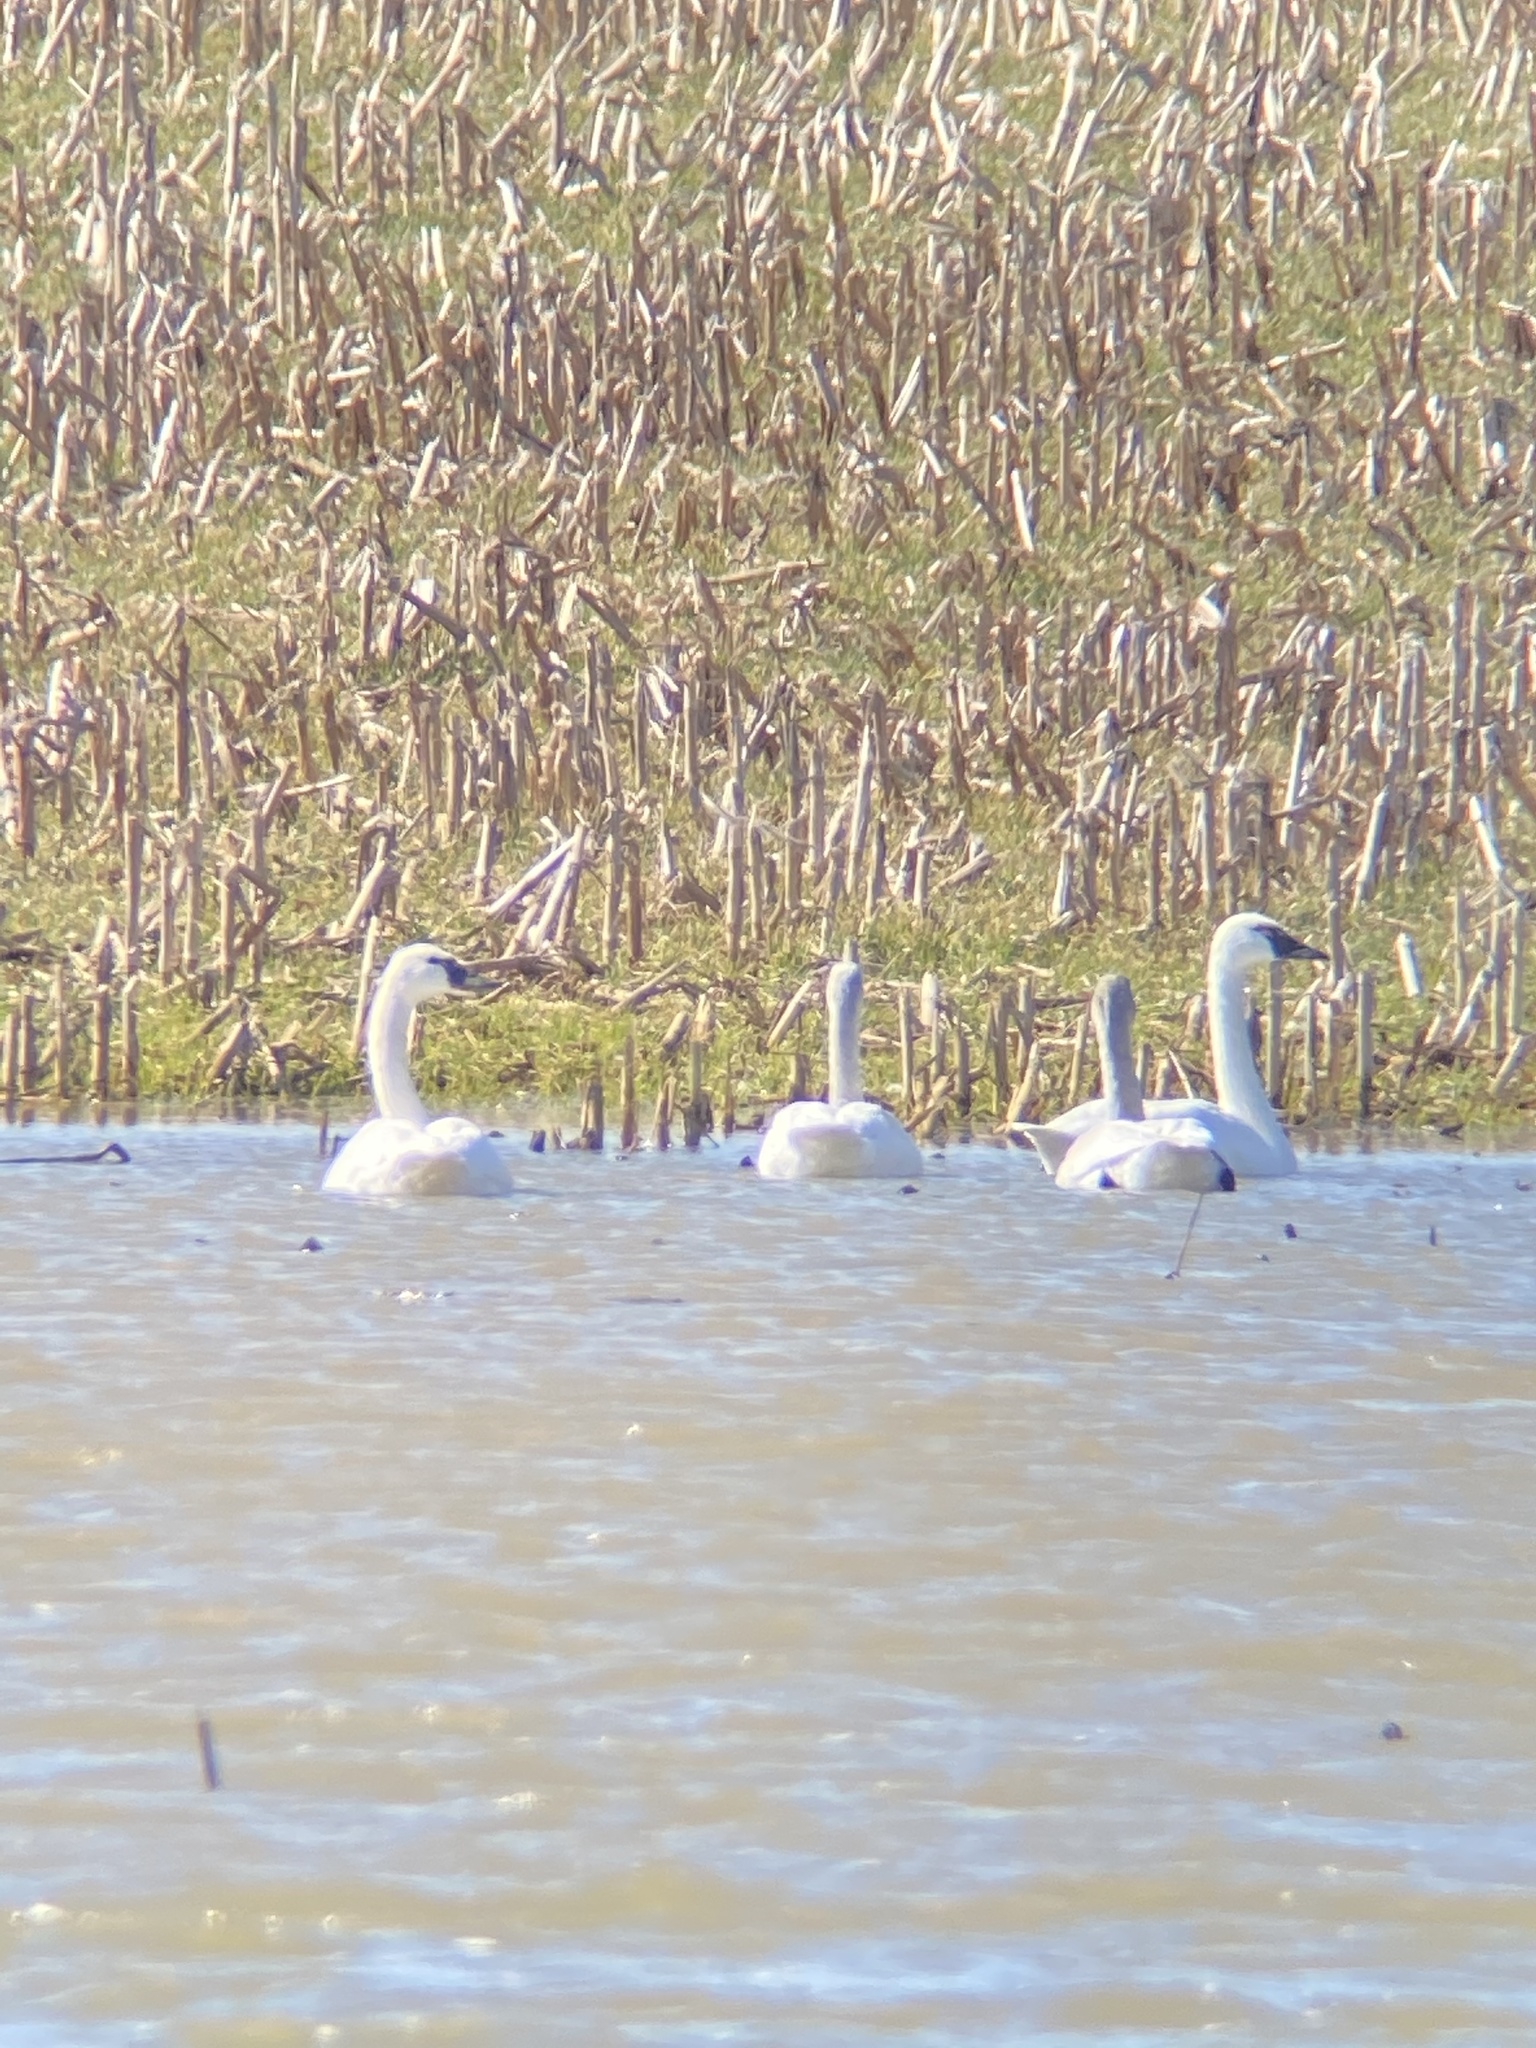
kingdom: Animalia
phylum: Chordata
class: Aves
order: Anseriformes
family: Anatidae
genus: Cygnus
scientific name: Cygnus columbianus
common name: Tundra swan
